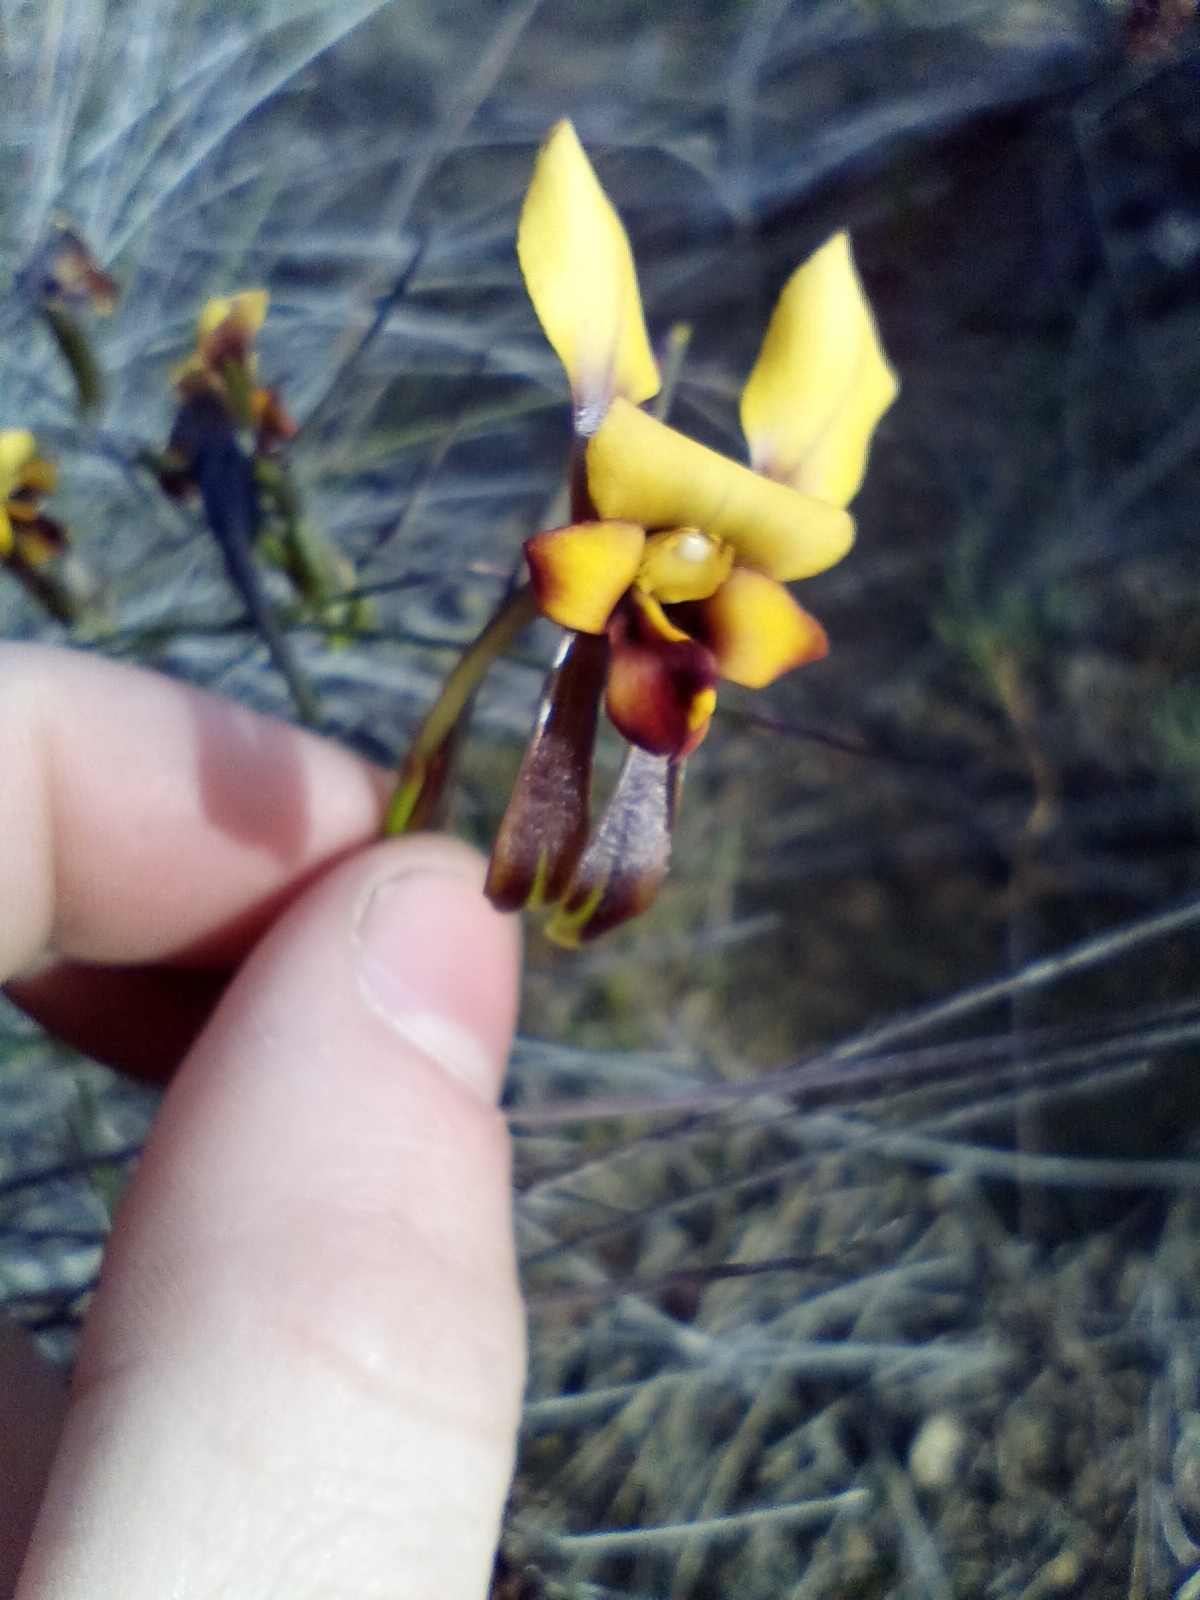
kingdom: Plantae
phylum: Tracheophyta
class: Liliopsida
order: Asparagales
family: Orchidaceae
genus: Diuris
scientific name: Diuris brockmanii
